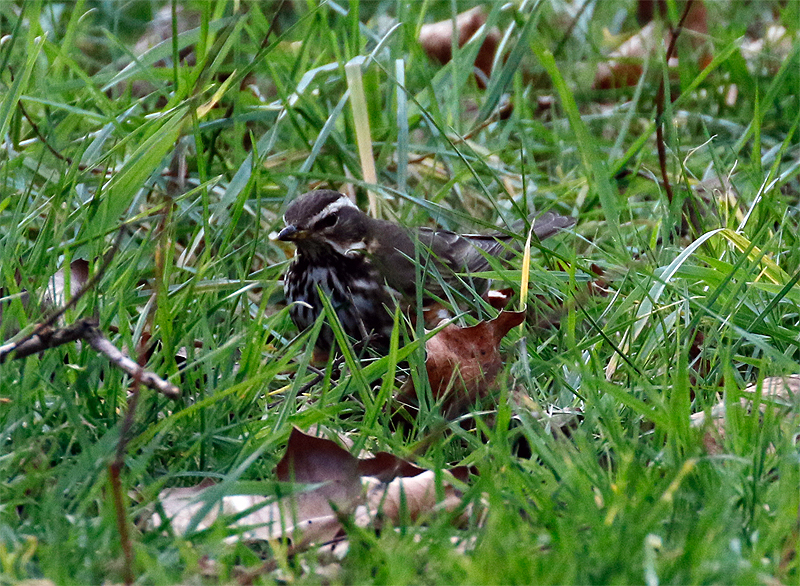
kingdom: Animalia
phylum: Chordata
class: Aves
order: Passeriformes
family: Turdidae
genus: Turdus
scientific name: Turdus iliacus
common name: Redwing
